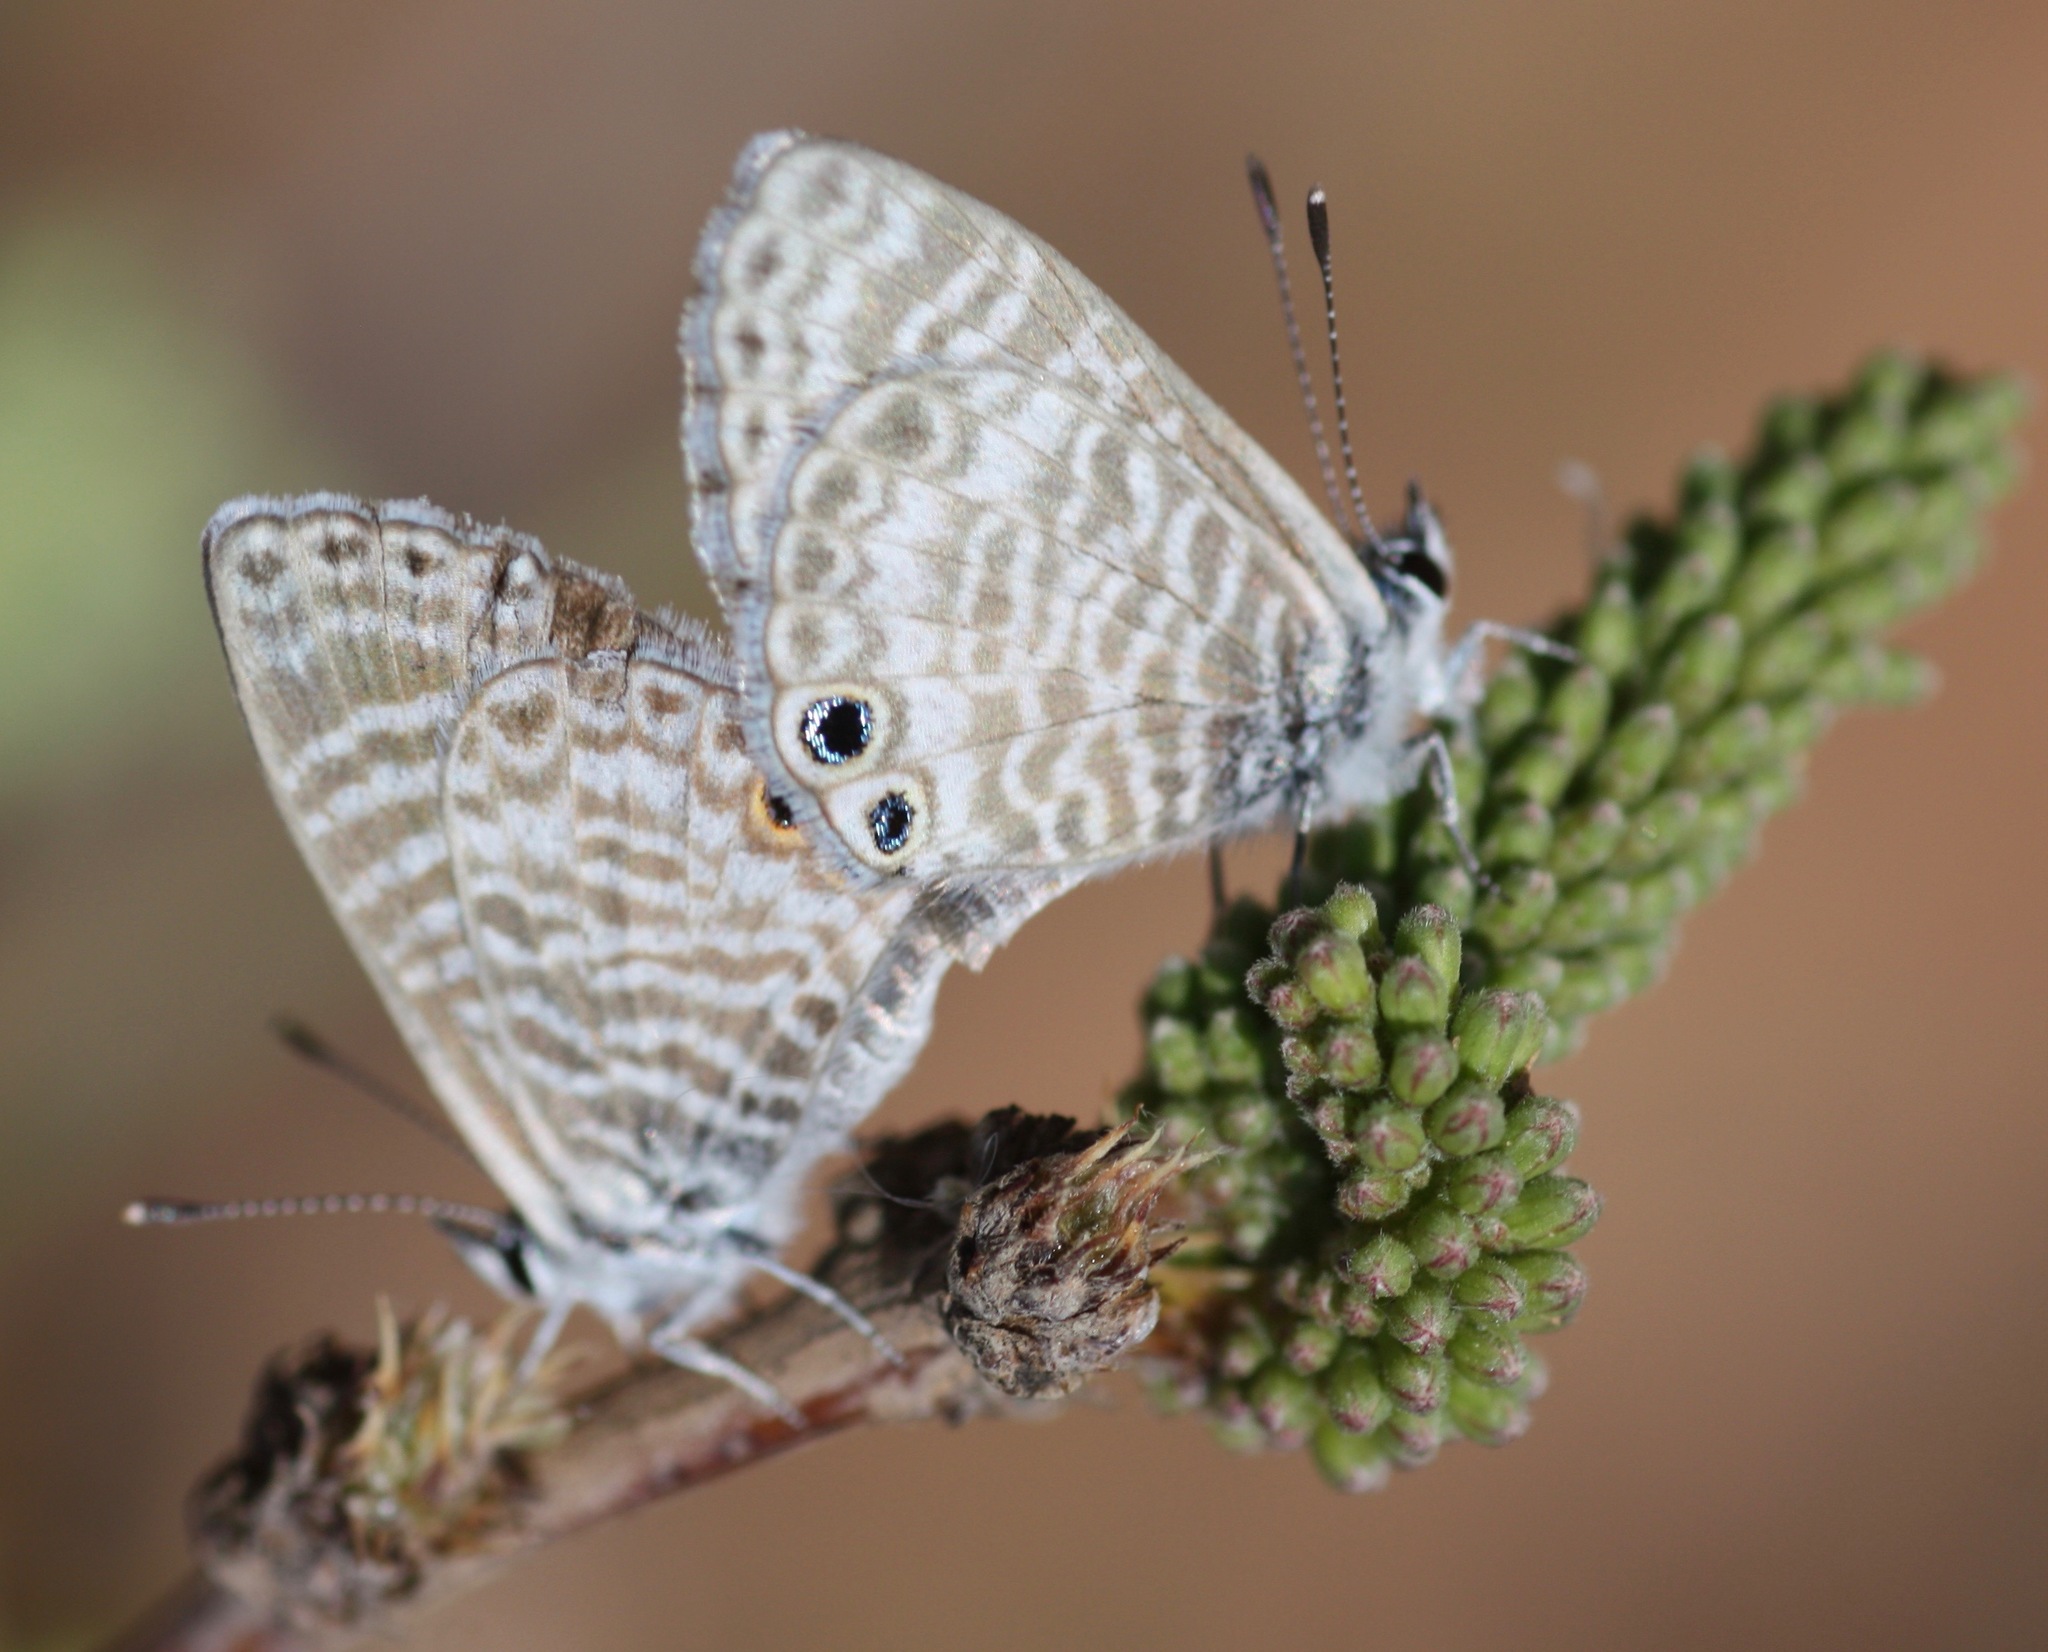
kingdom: Animalia
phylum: Arthropoda
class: Insecta
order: Lepidoptera
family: Lycaenidae
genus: Leptotes
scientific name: Leptotes marina
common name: Marine blue
